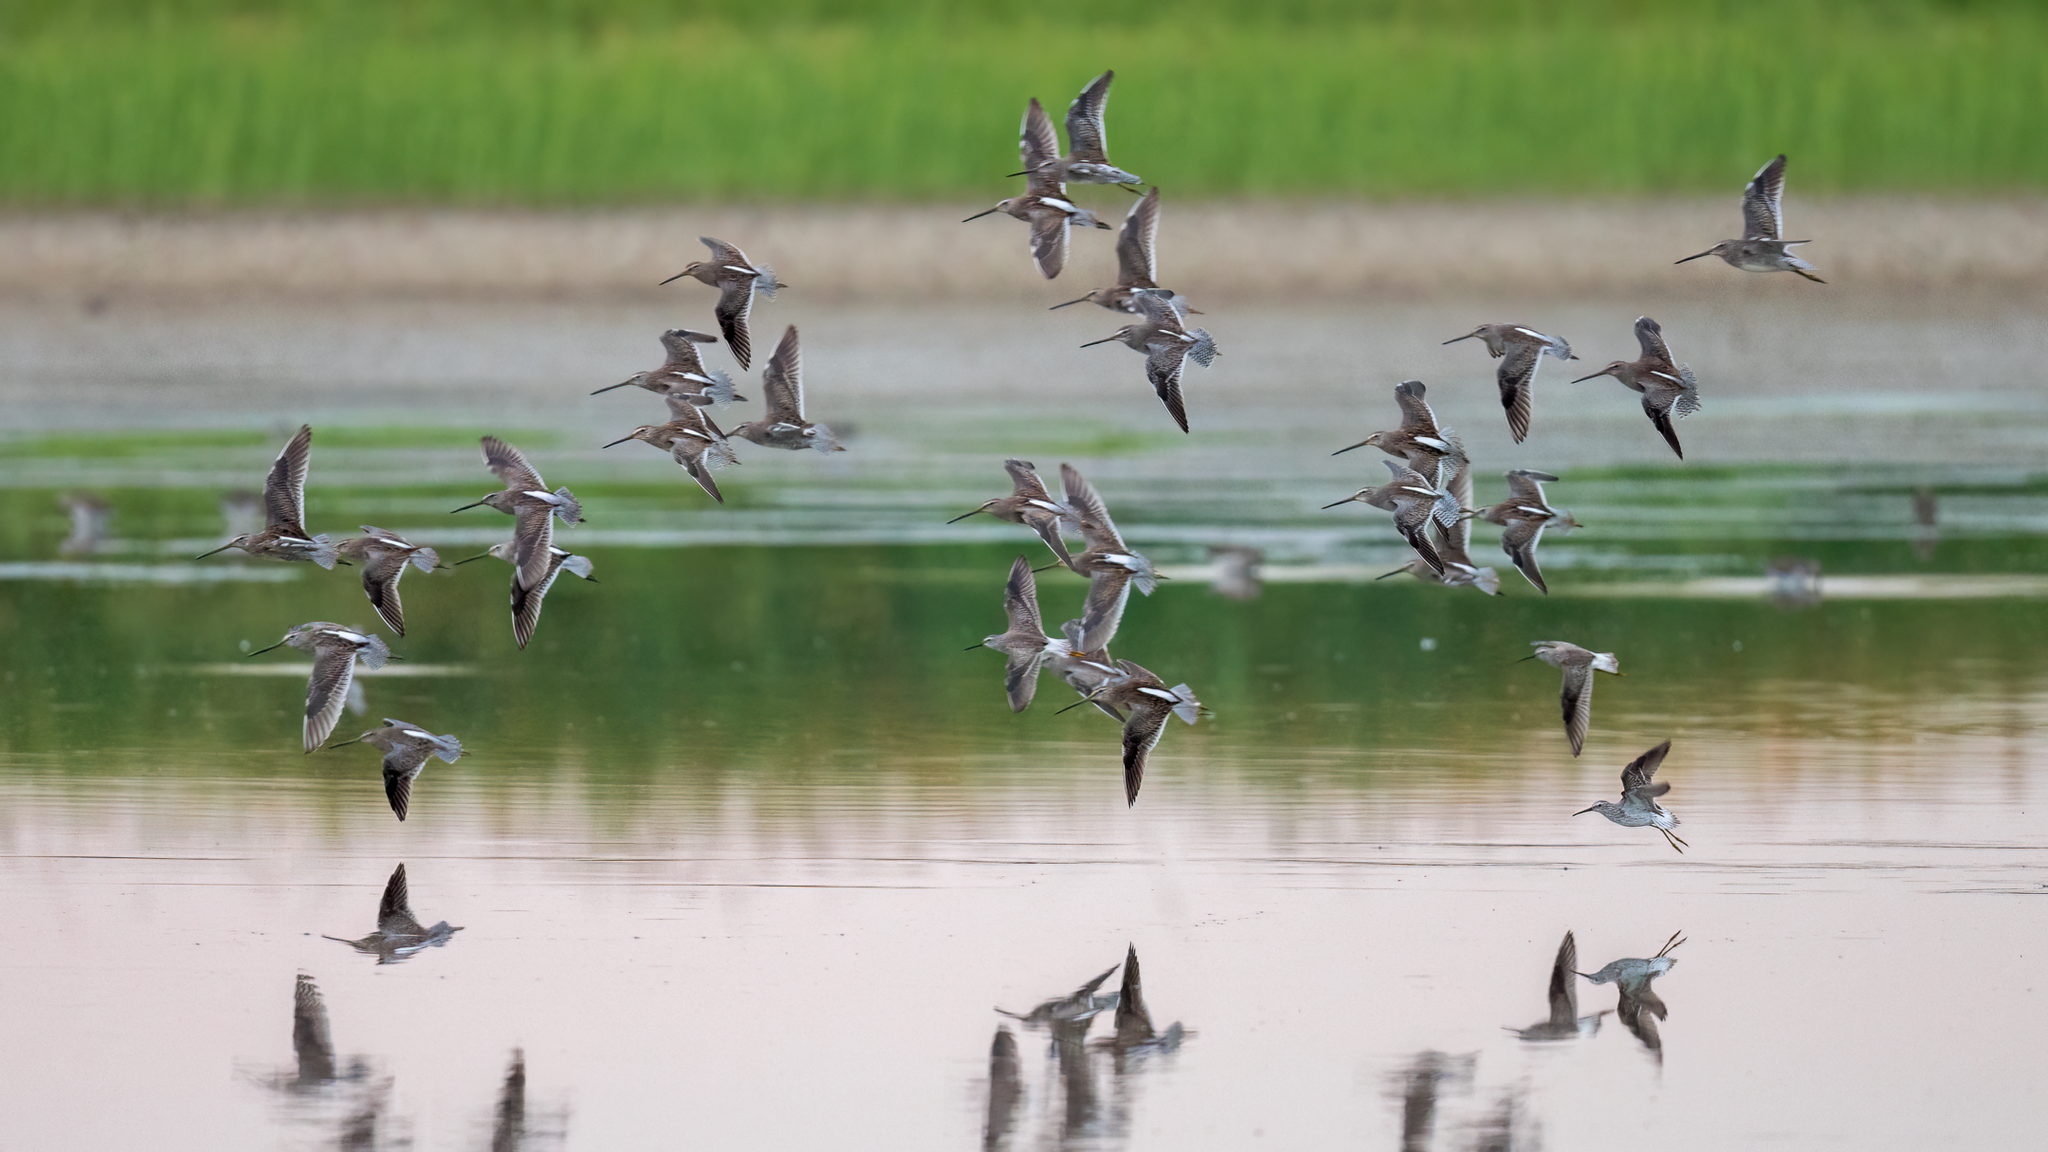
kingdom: Animalia
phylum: Chordata
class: Aves
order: Charadriiformes
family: Scolopacidae
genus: Limnodromus
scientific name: Limnodromus scolopaceus
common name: Long-billed dowitcher
